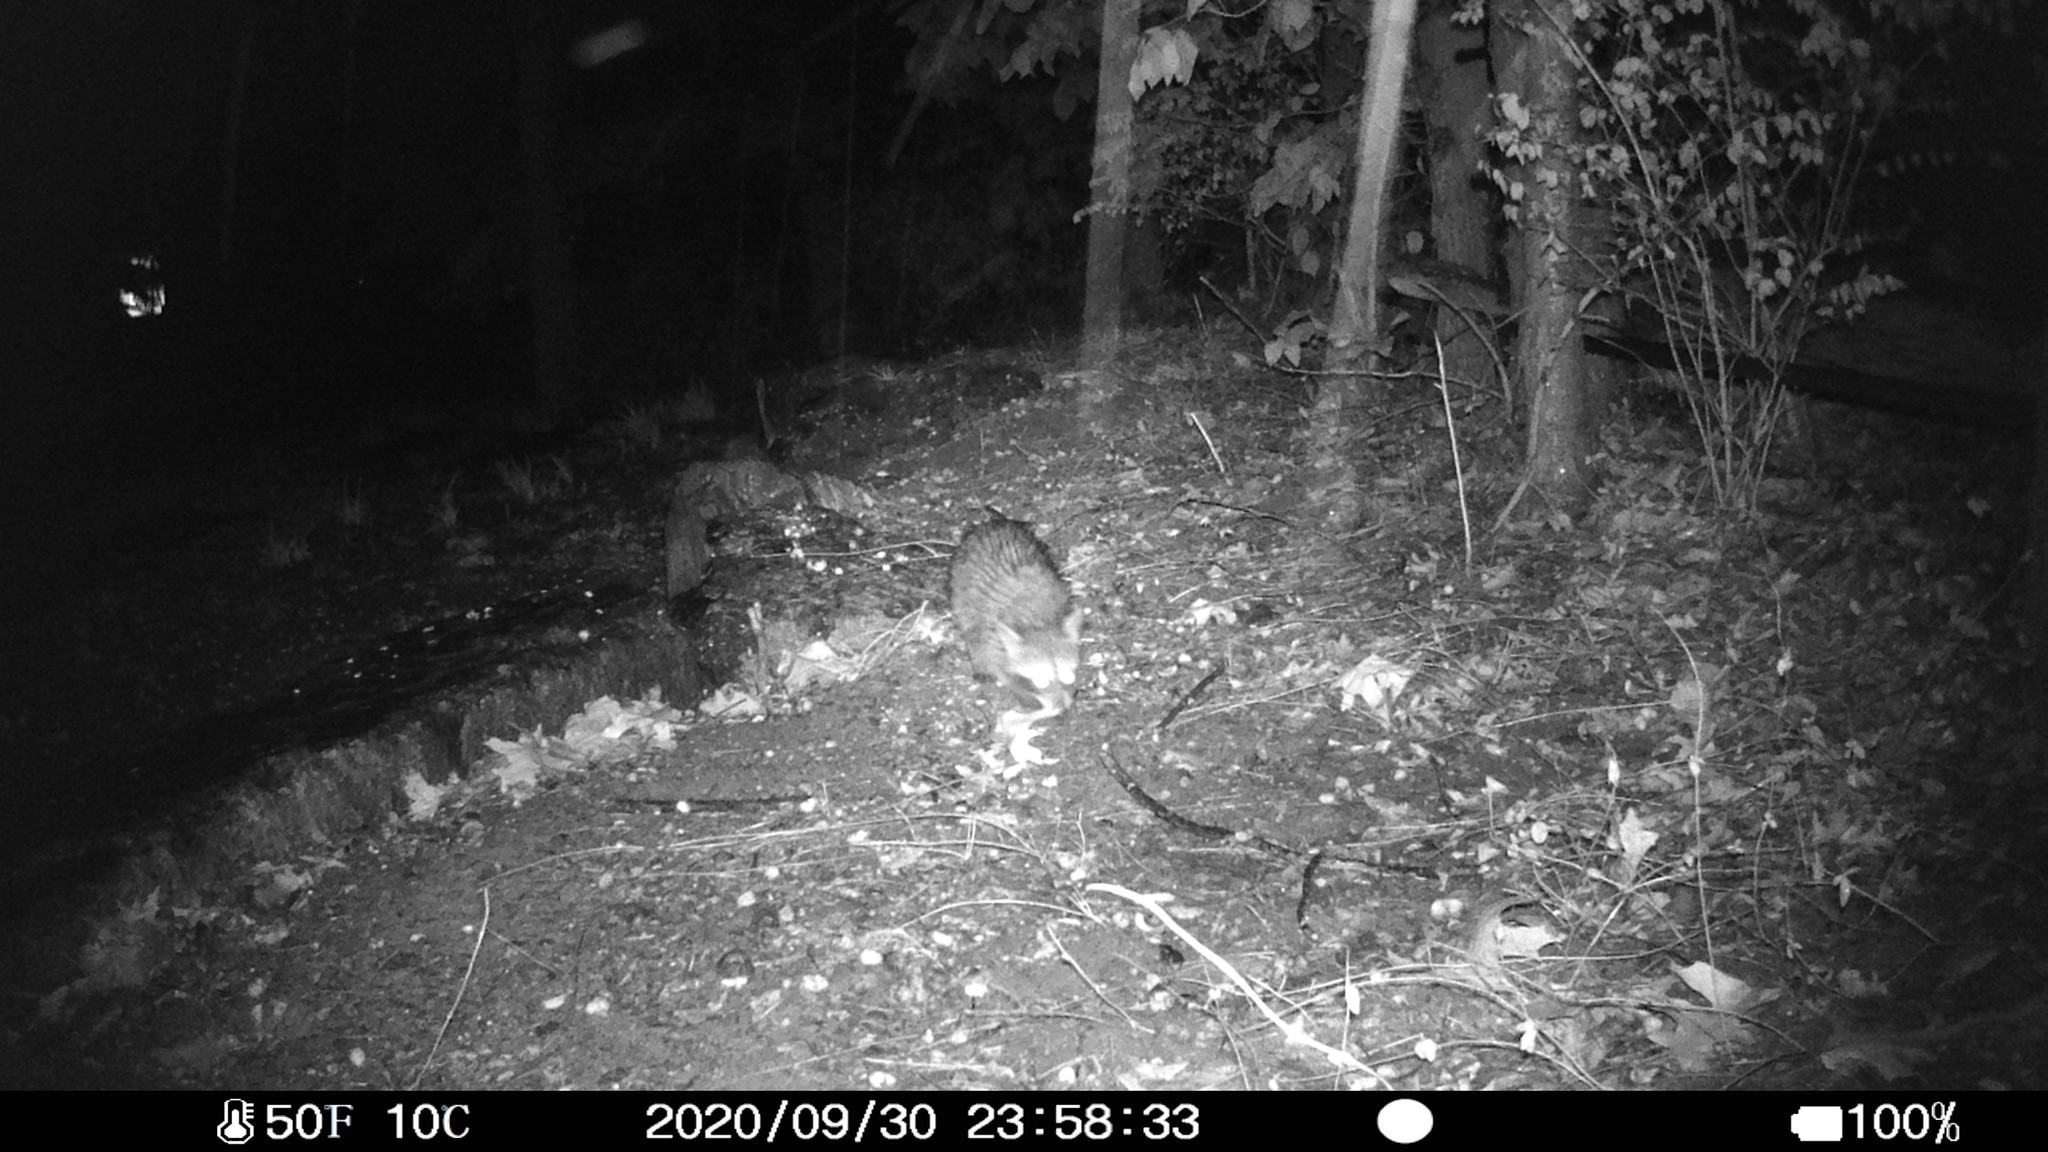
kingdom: Animalia
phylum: Chordata
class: Mammalia
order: Carnivora
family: Procyonidae
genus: Procyon
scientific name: Procyon lotor
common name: Raccoon
